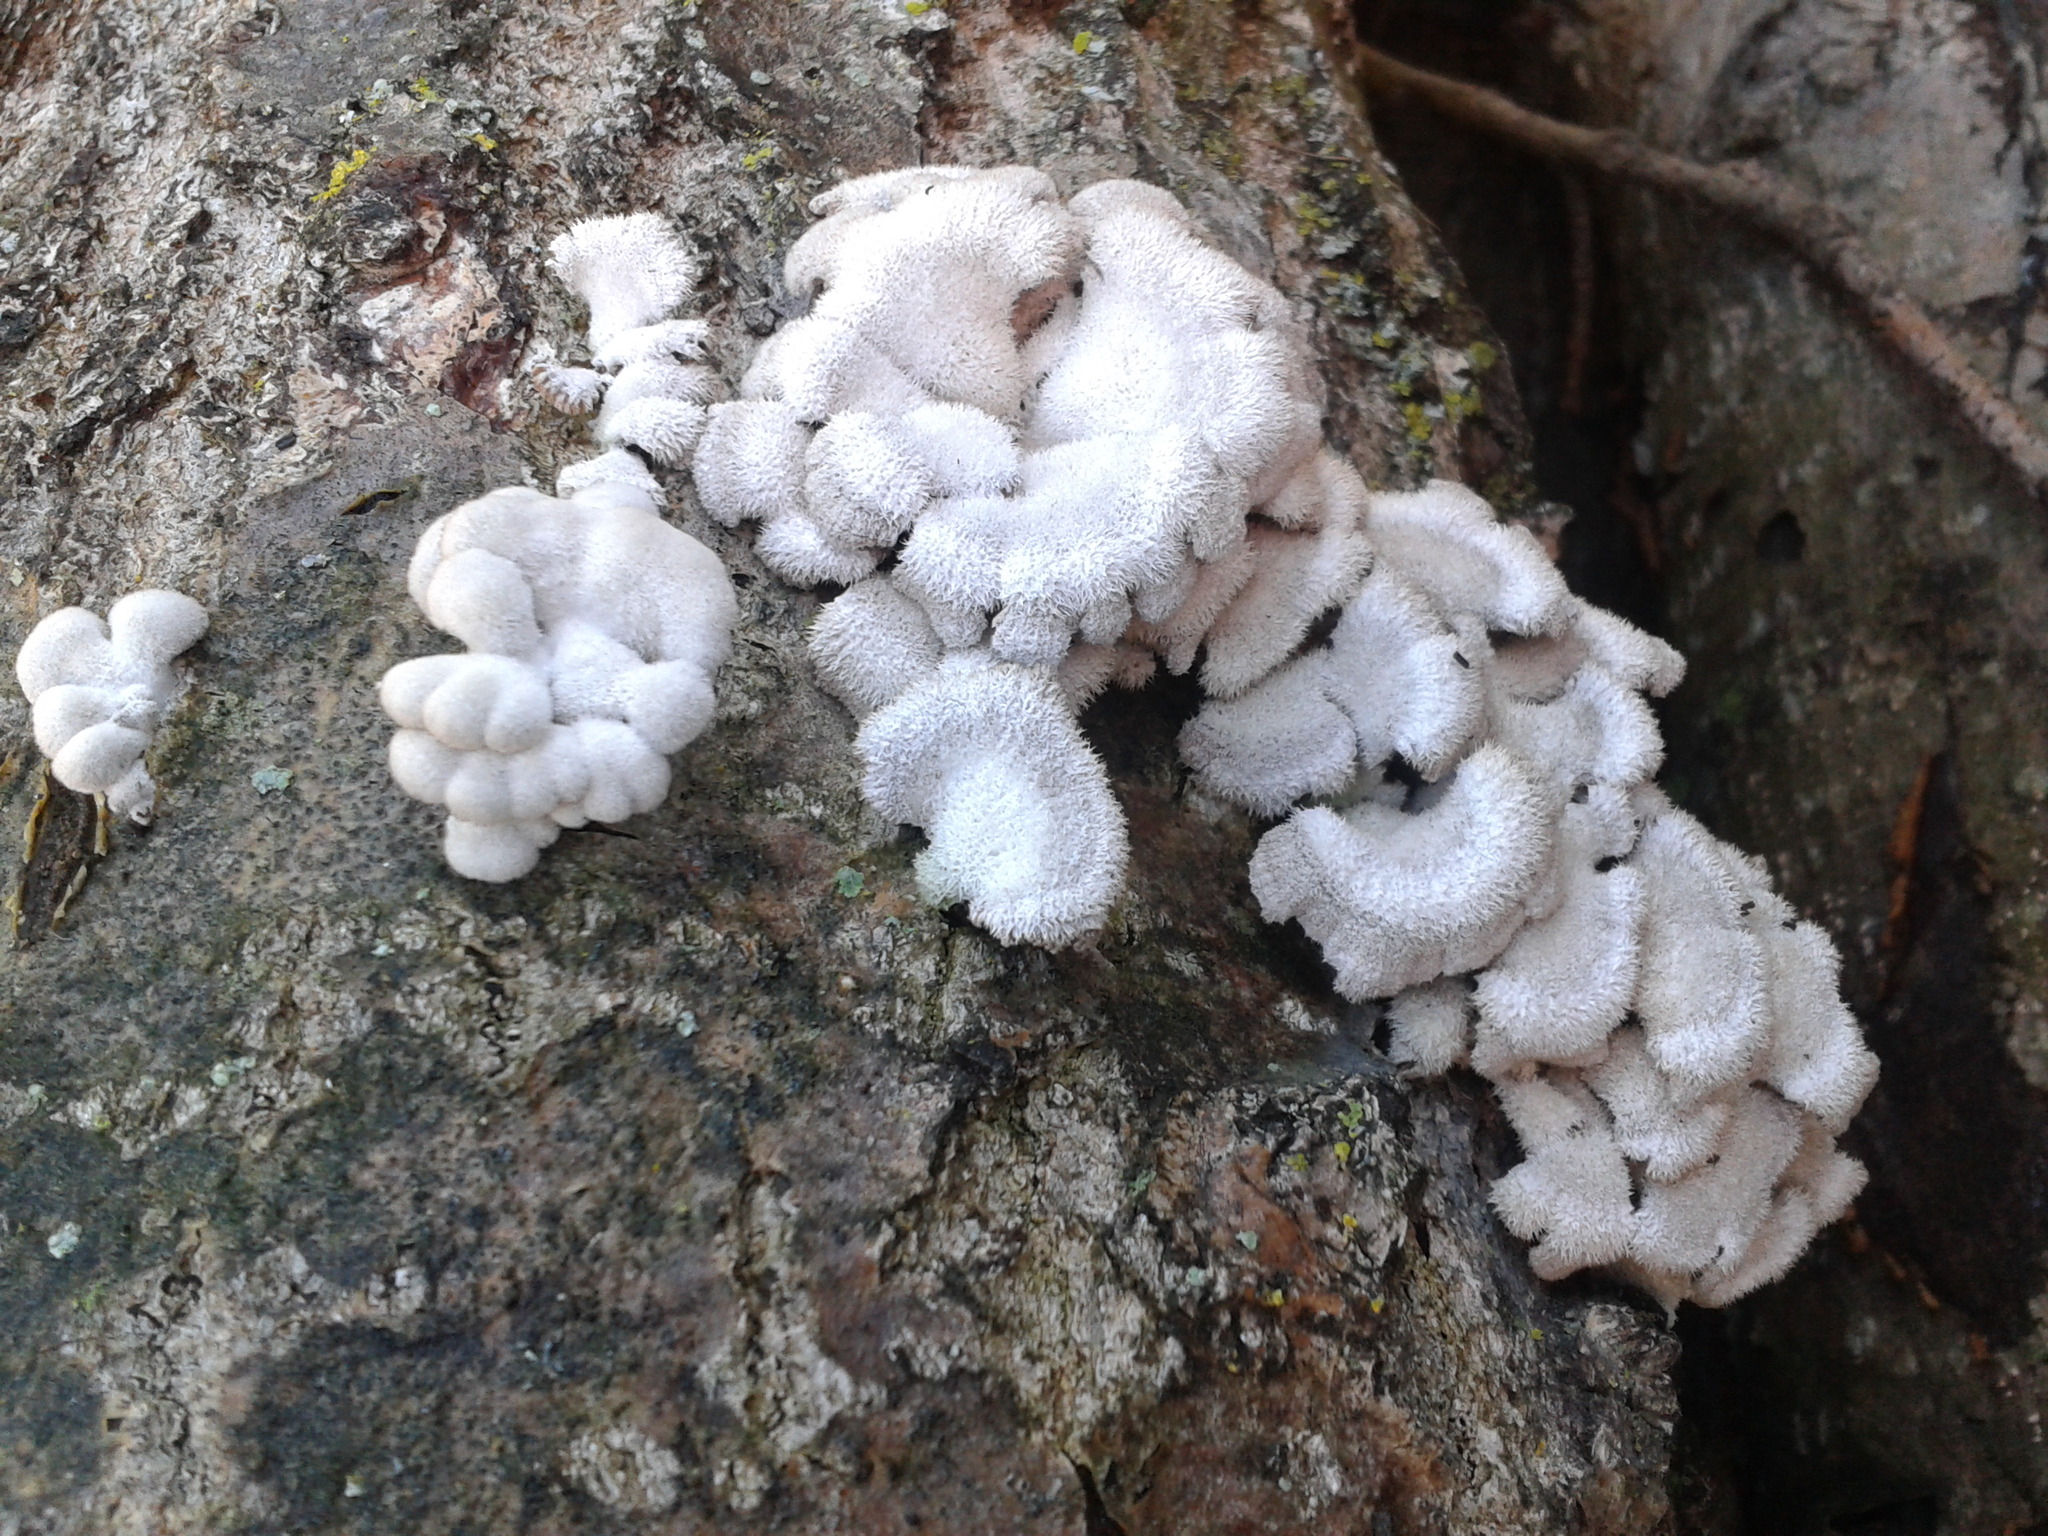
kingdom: Fungi
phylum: Basidiomycota
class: Agaricomycetes
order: Agaricales
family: Schizophyllaceae
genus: Schizophyllum
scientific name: Schizophyllum commune
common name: Common porecrust
